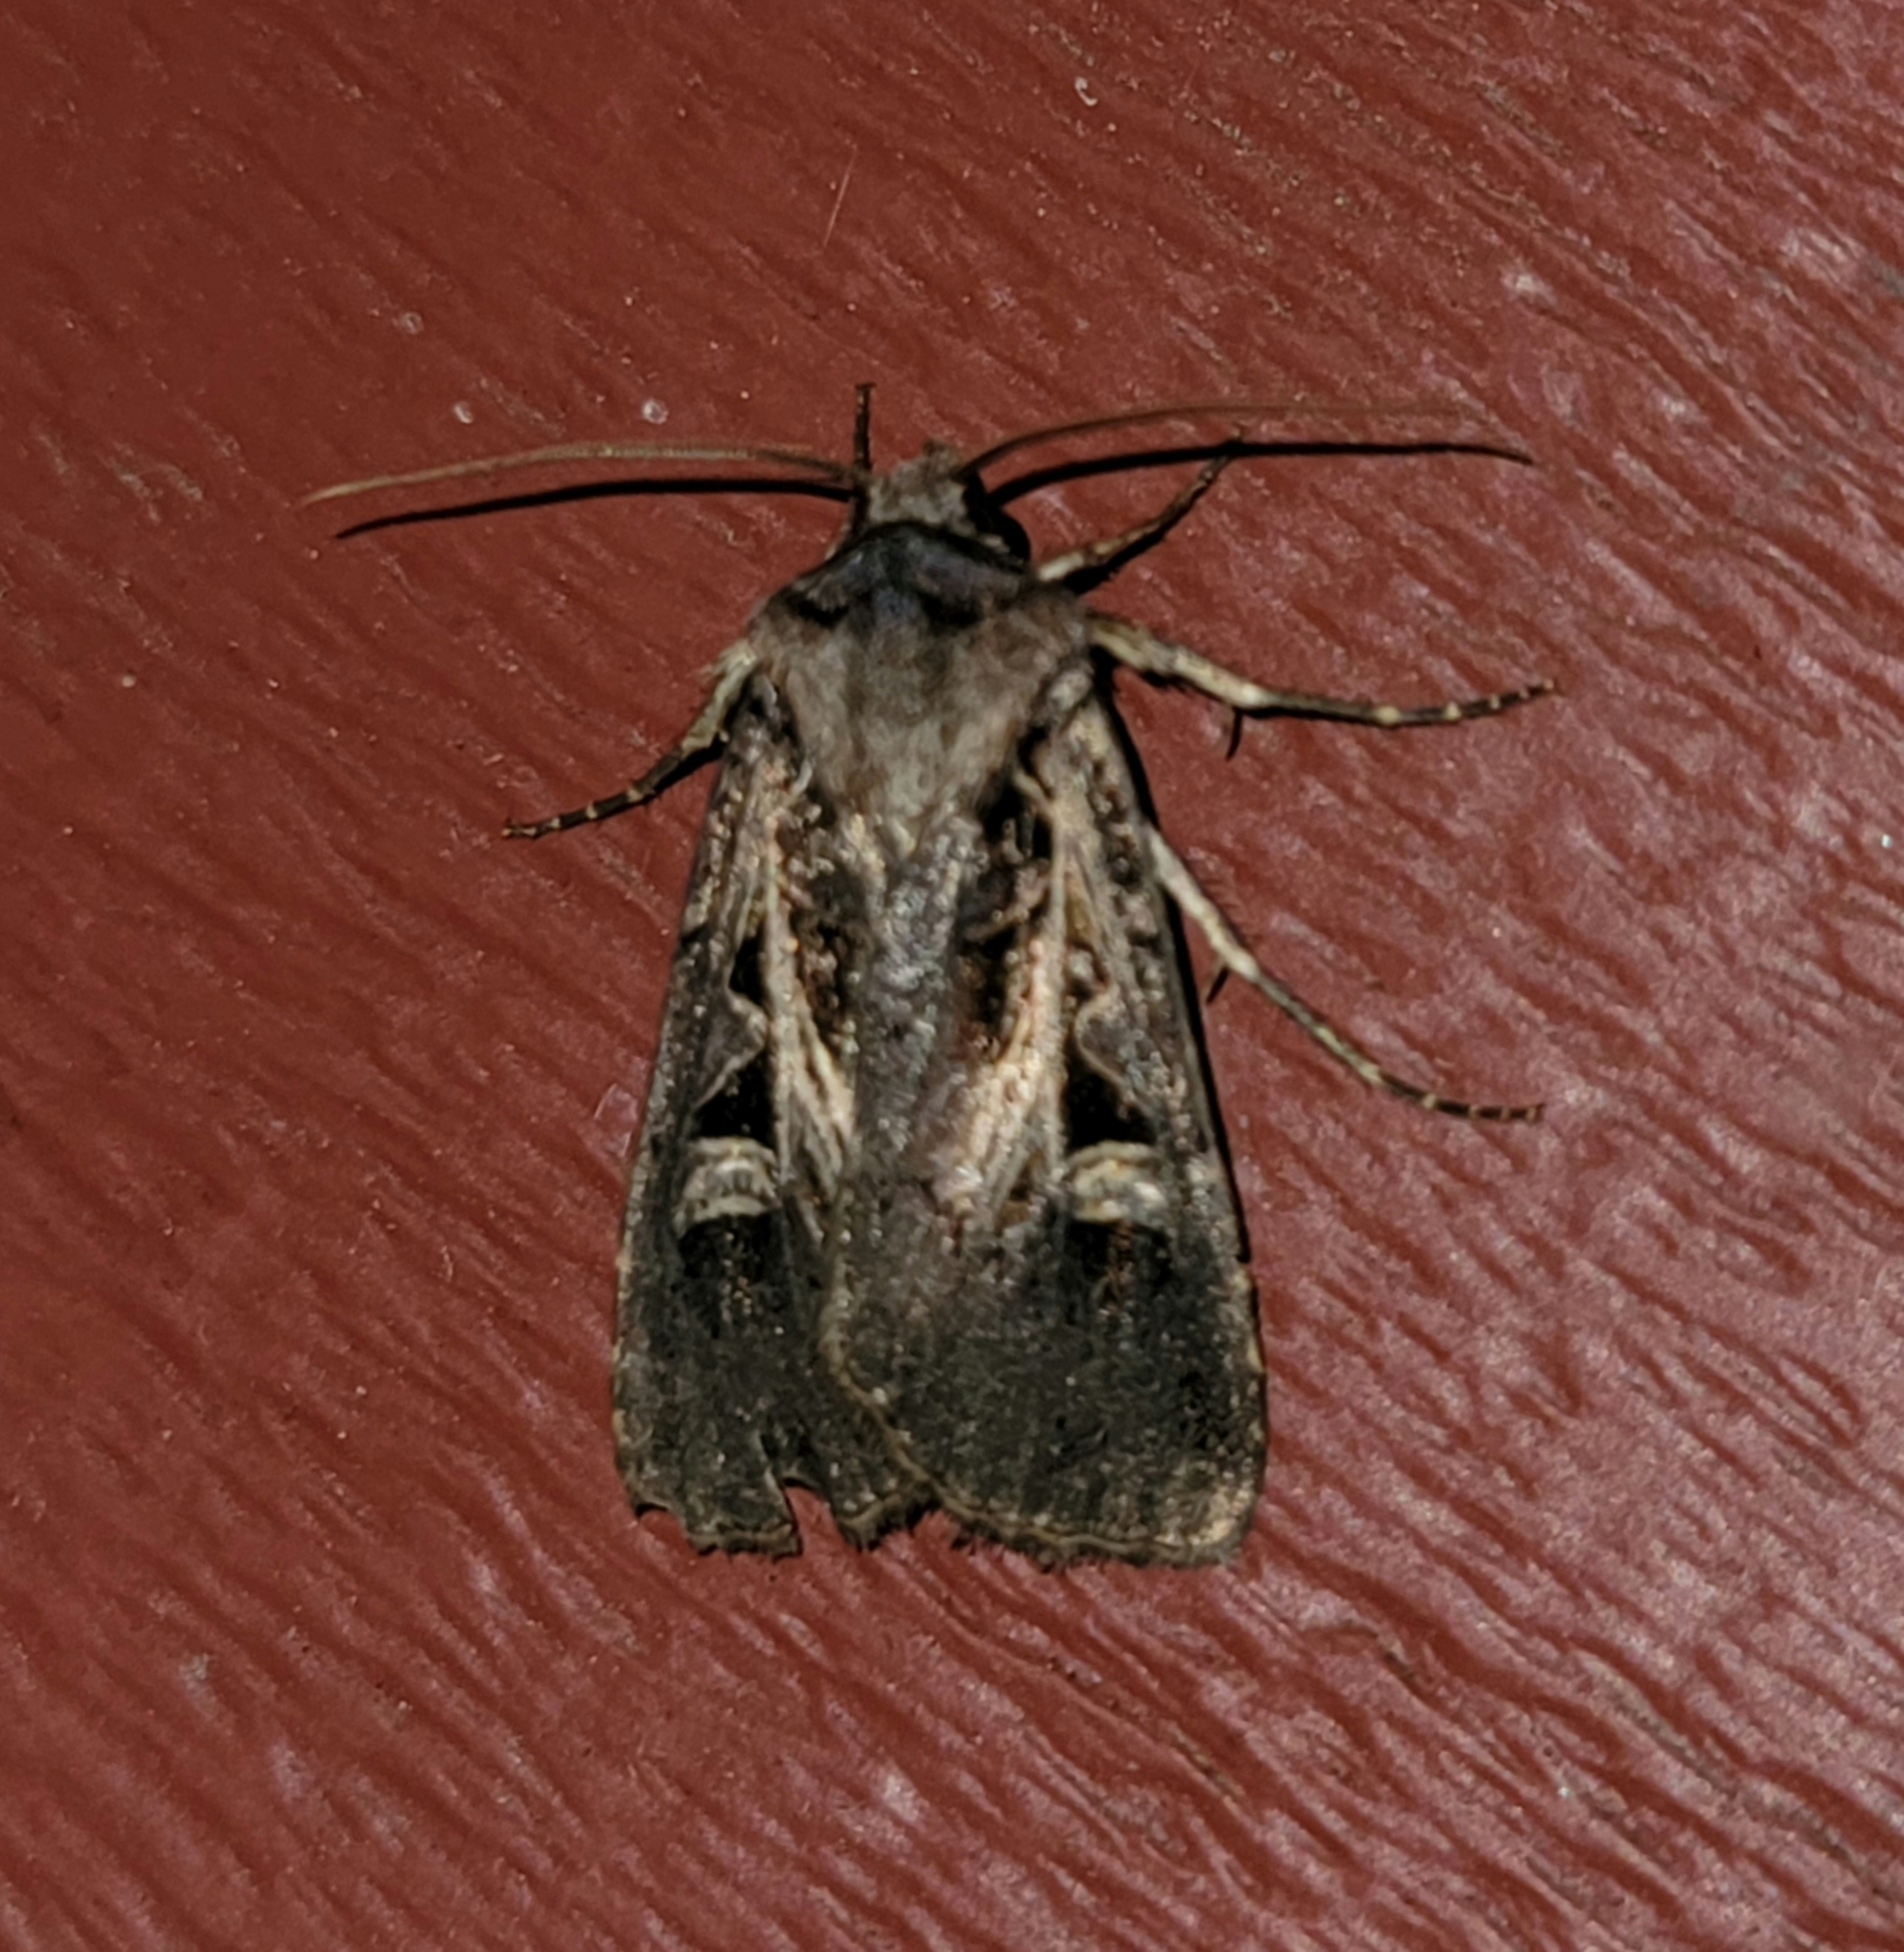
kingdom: Animalia
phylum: Arthropoda
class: Insecta
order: Lepidoptera
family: Noctuidae
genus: Feltia
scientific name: Feltia herilis
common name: Master's dart
